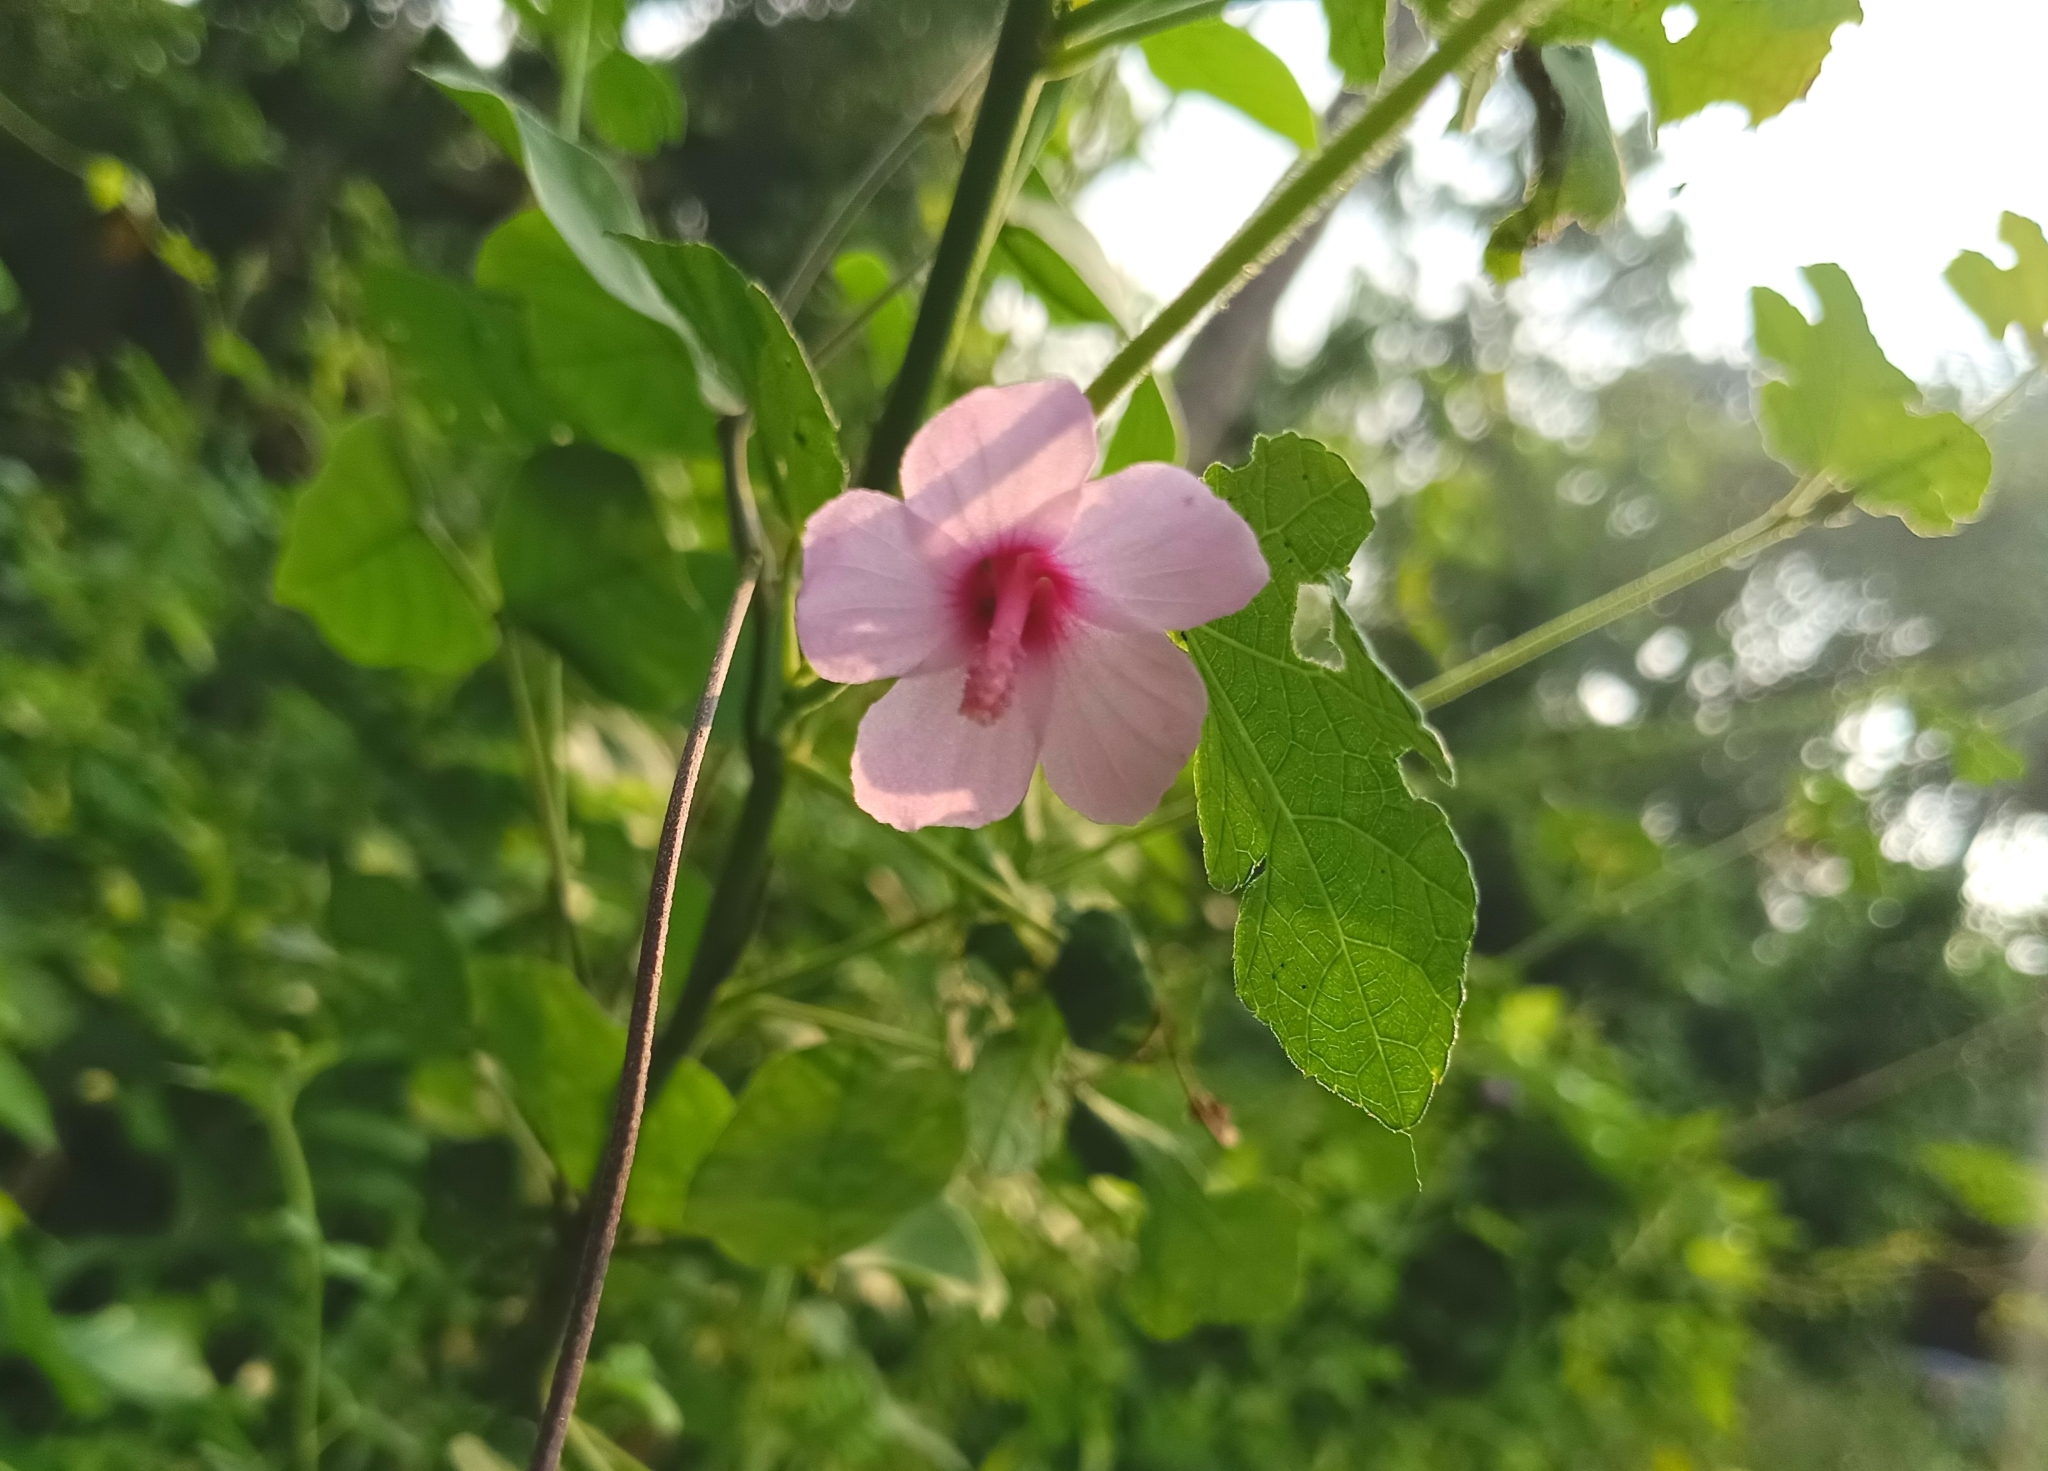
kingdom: Plantae
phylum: Tracheophyta
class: Magnoliopsida
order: Malvales
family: Malvaceae
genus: Urena
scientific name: Urena procumbens
